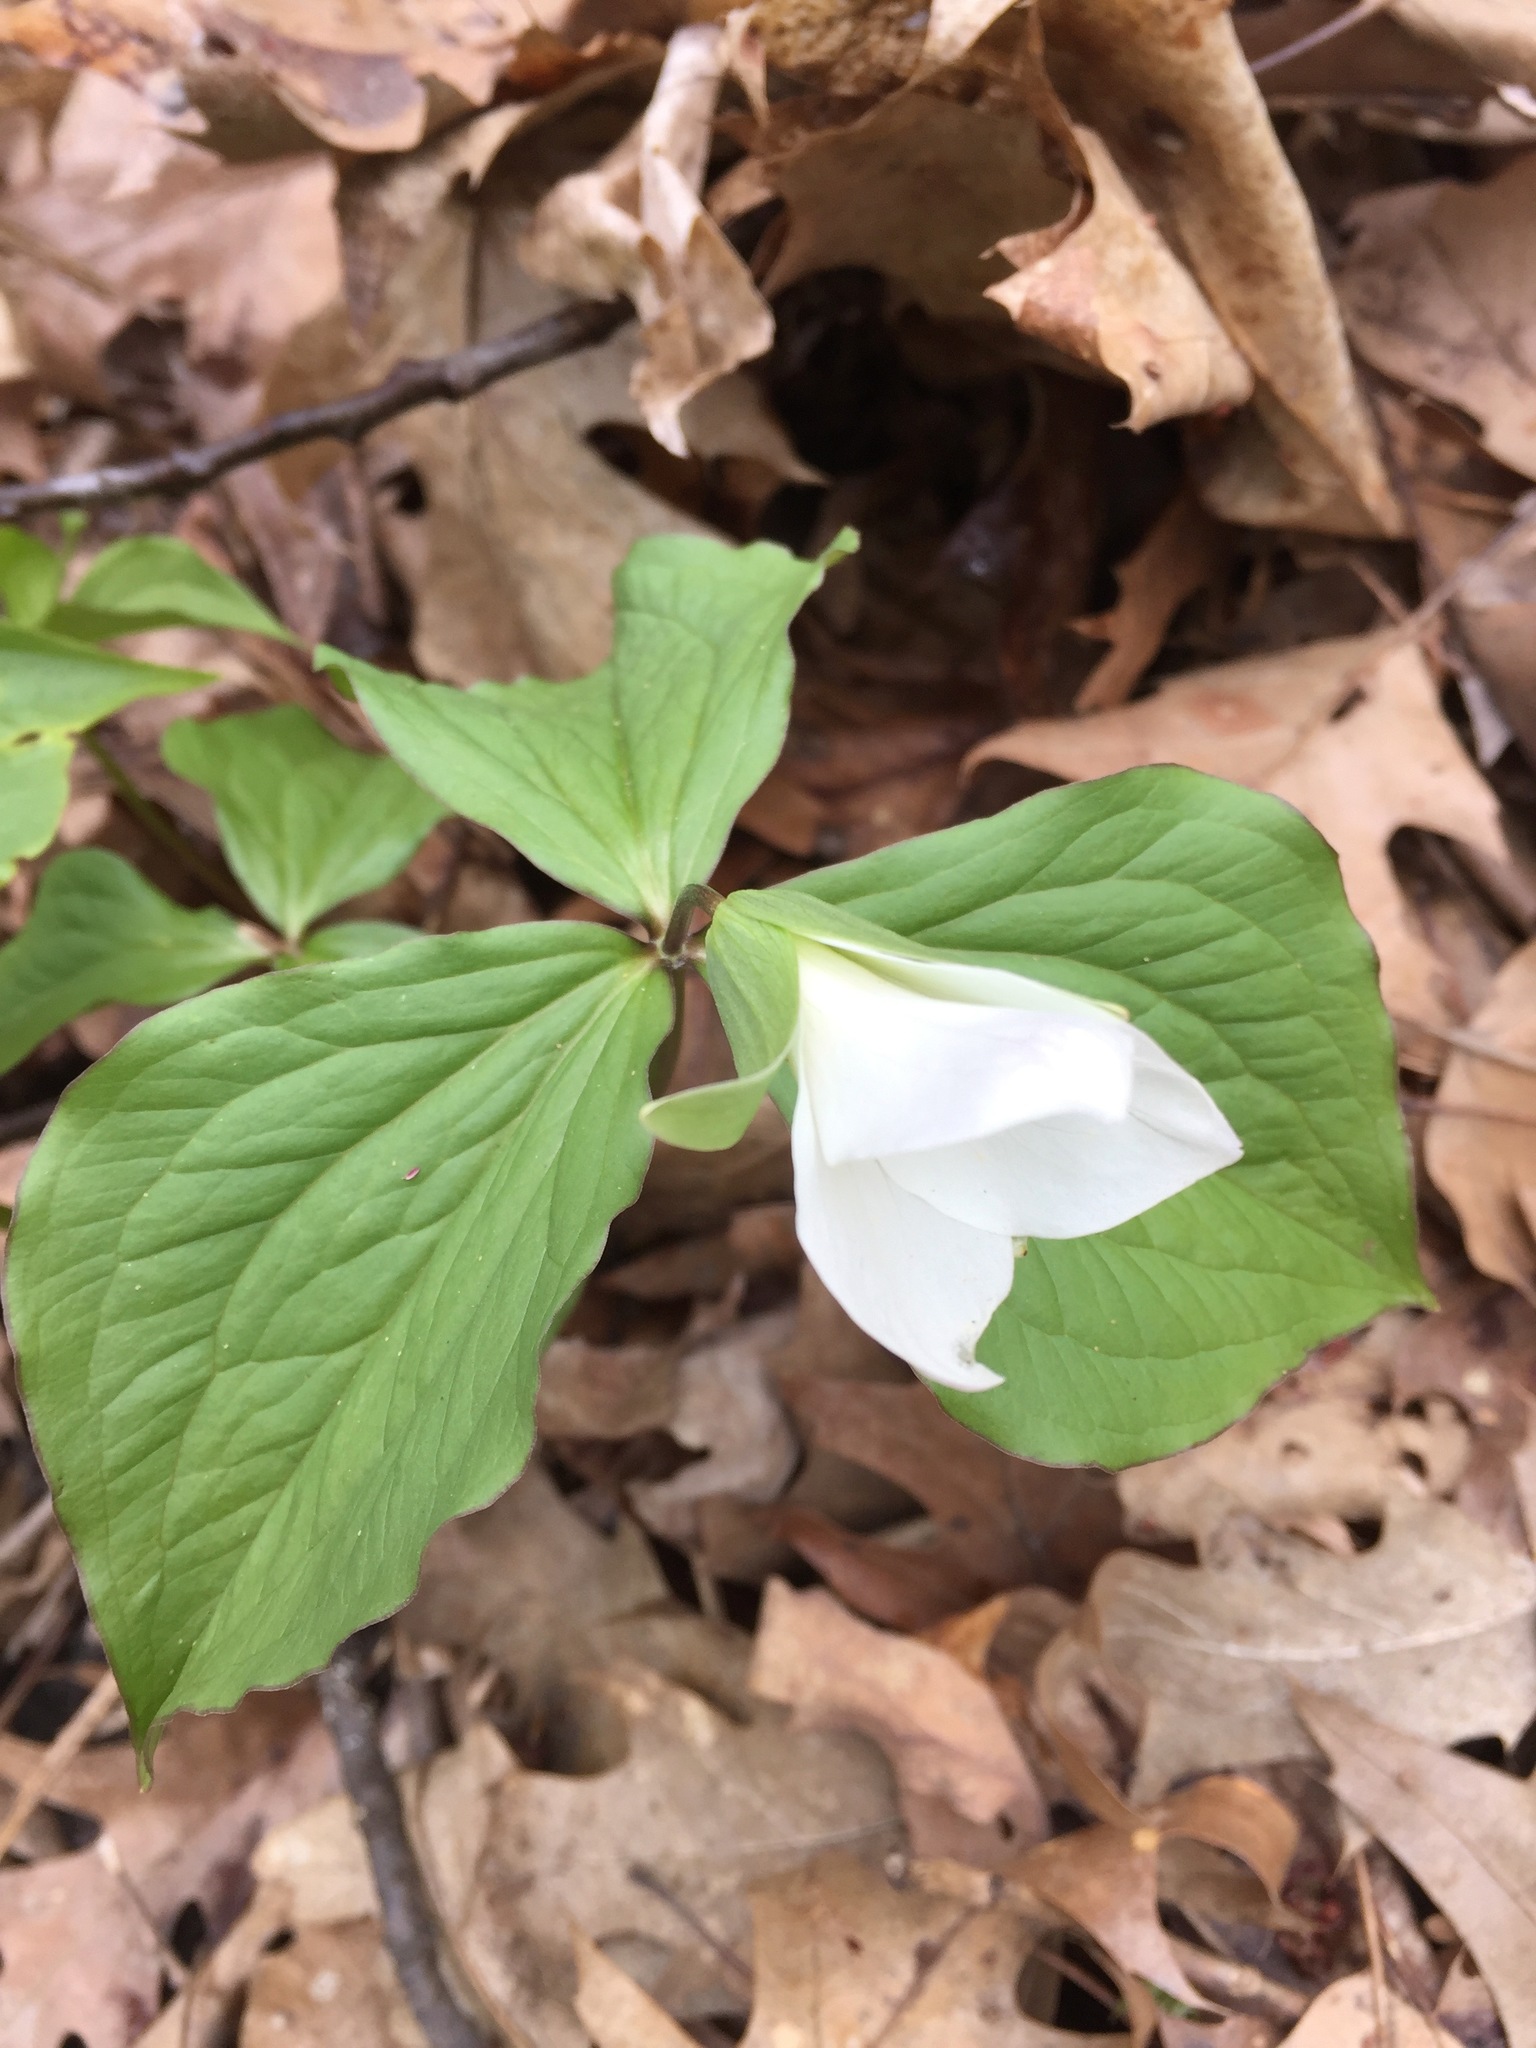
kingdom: Plantae
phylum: Tracheophyta
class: Liliopsida
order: Liliales
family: Melanthiaceae
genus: Trillium
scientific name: Trillium grandiflorum
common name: Great white trillium
